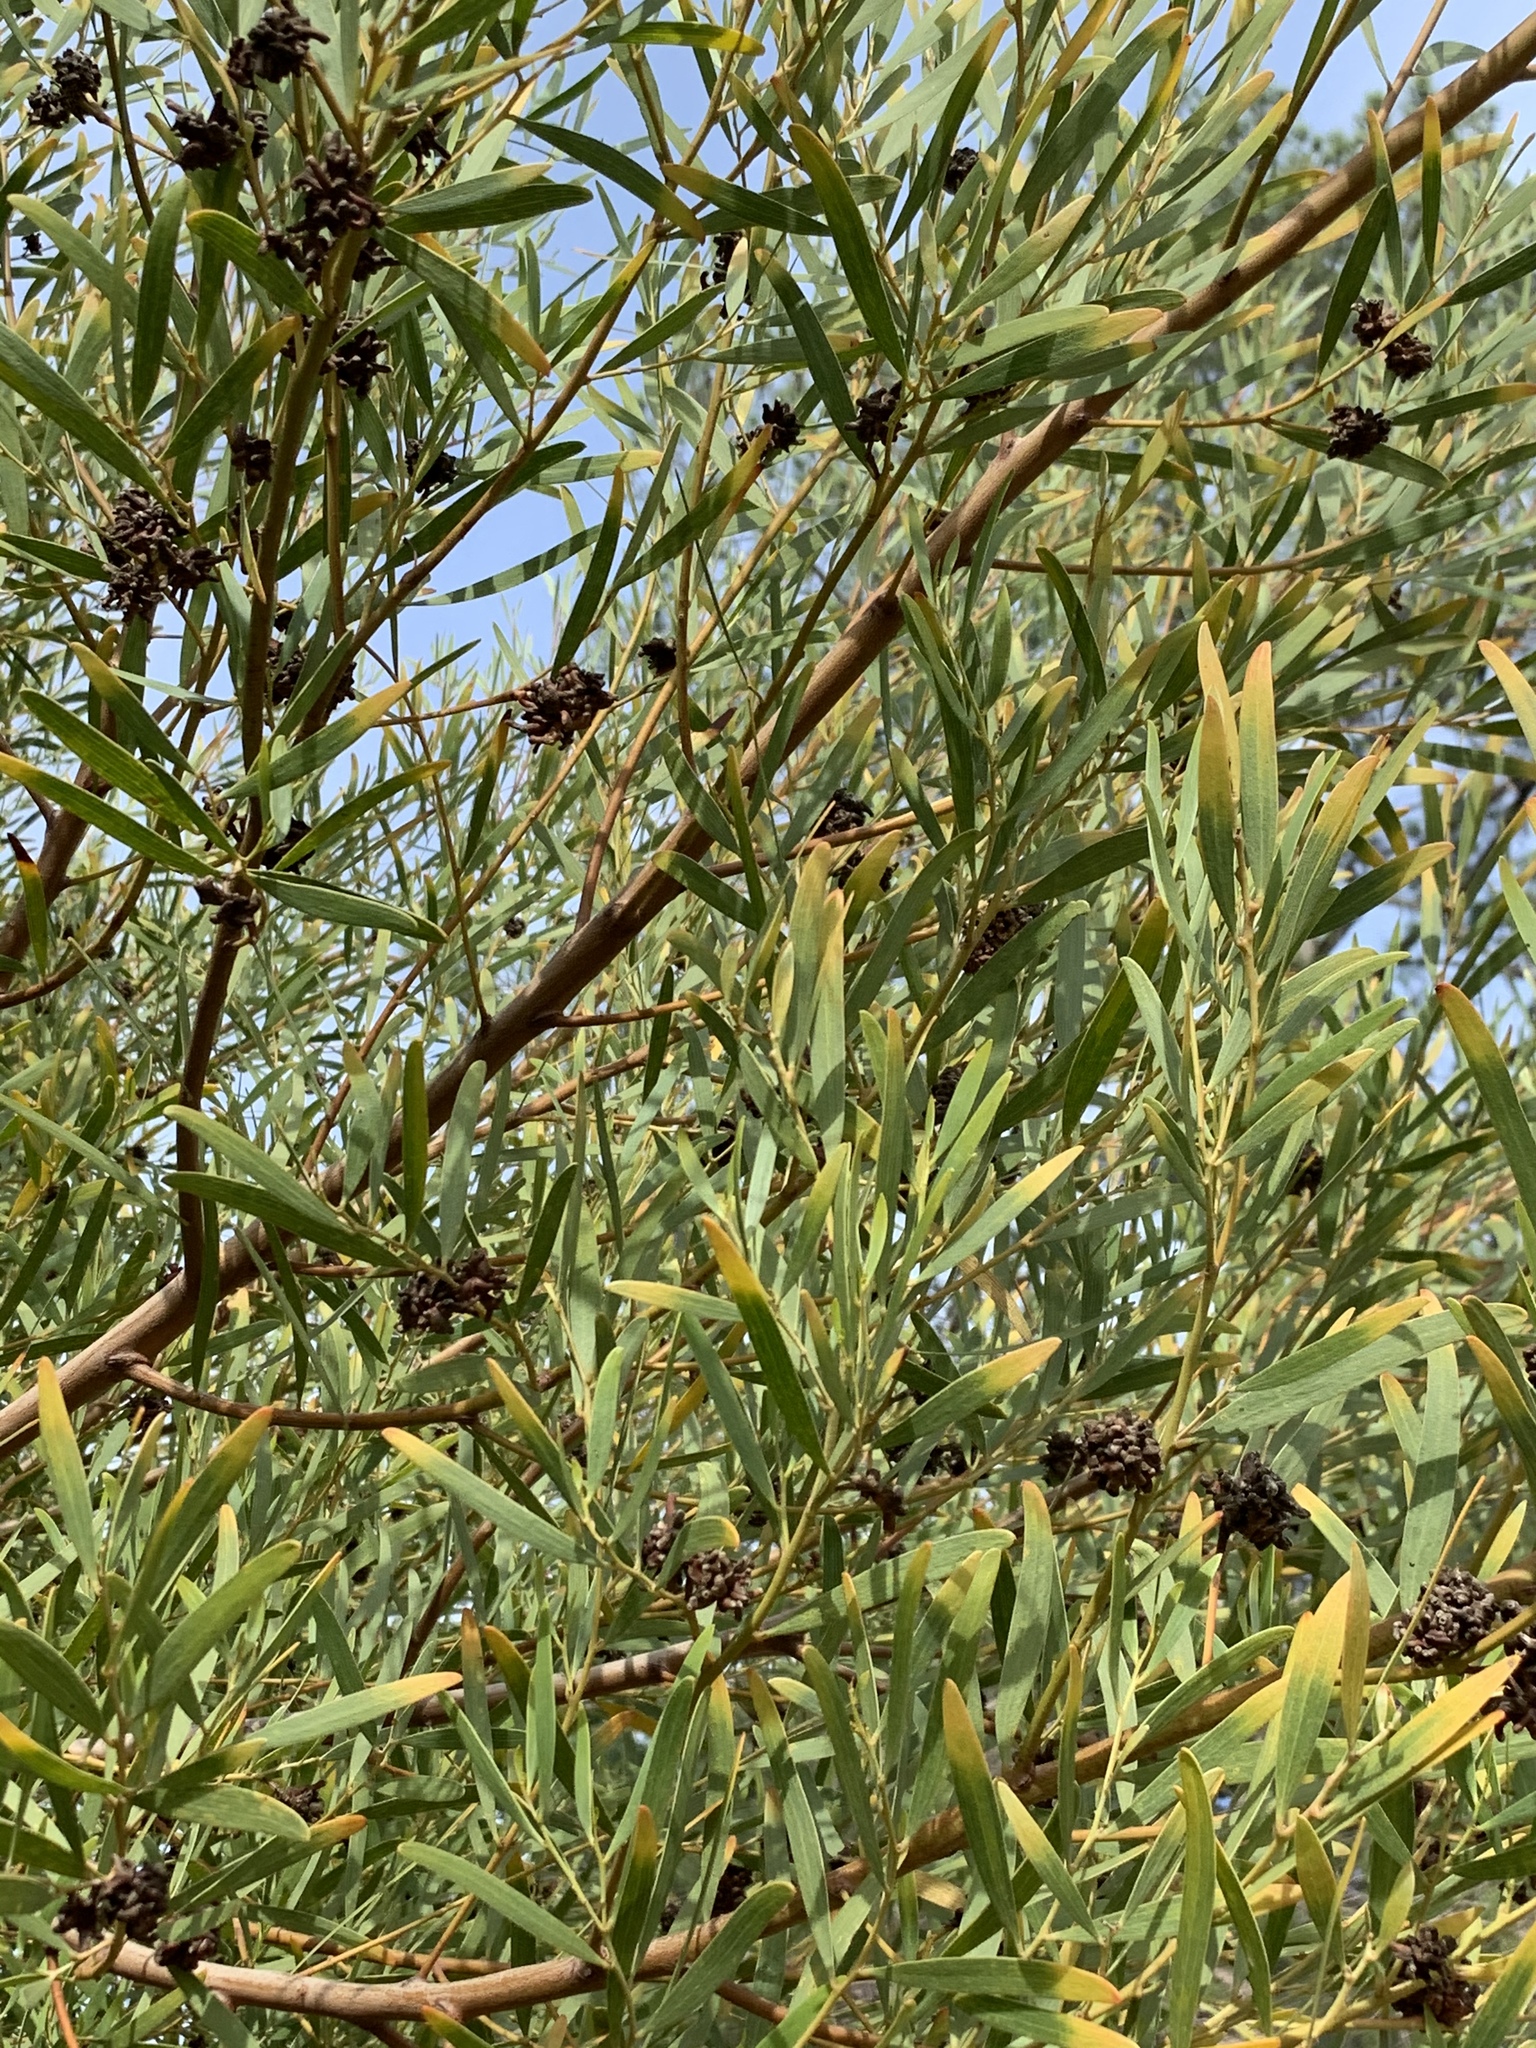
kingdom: Animalia
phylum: Arthropoda
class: Insecta
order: Diptera
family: Cecidomyiidae
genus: Dasineura
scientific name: Dasineura dielsi
